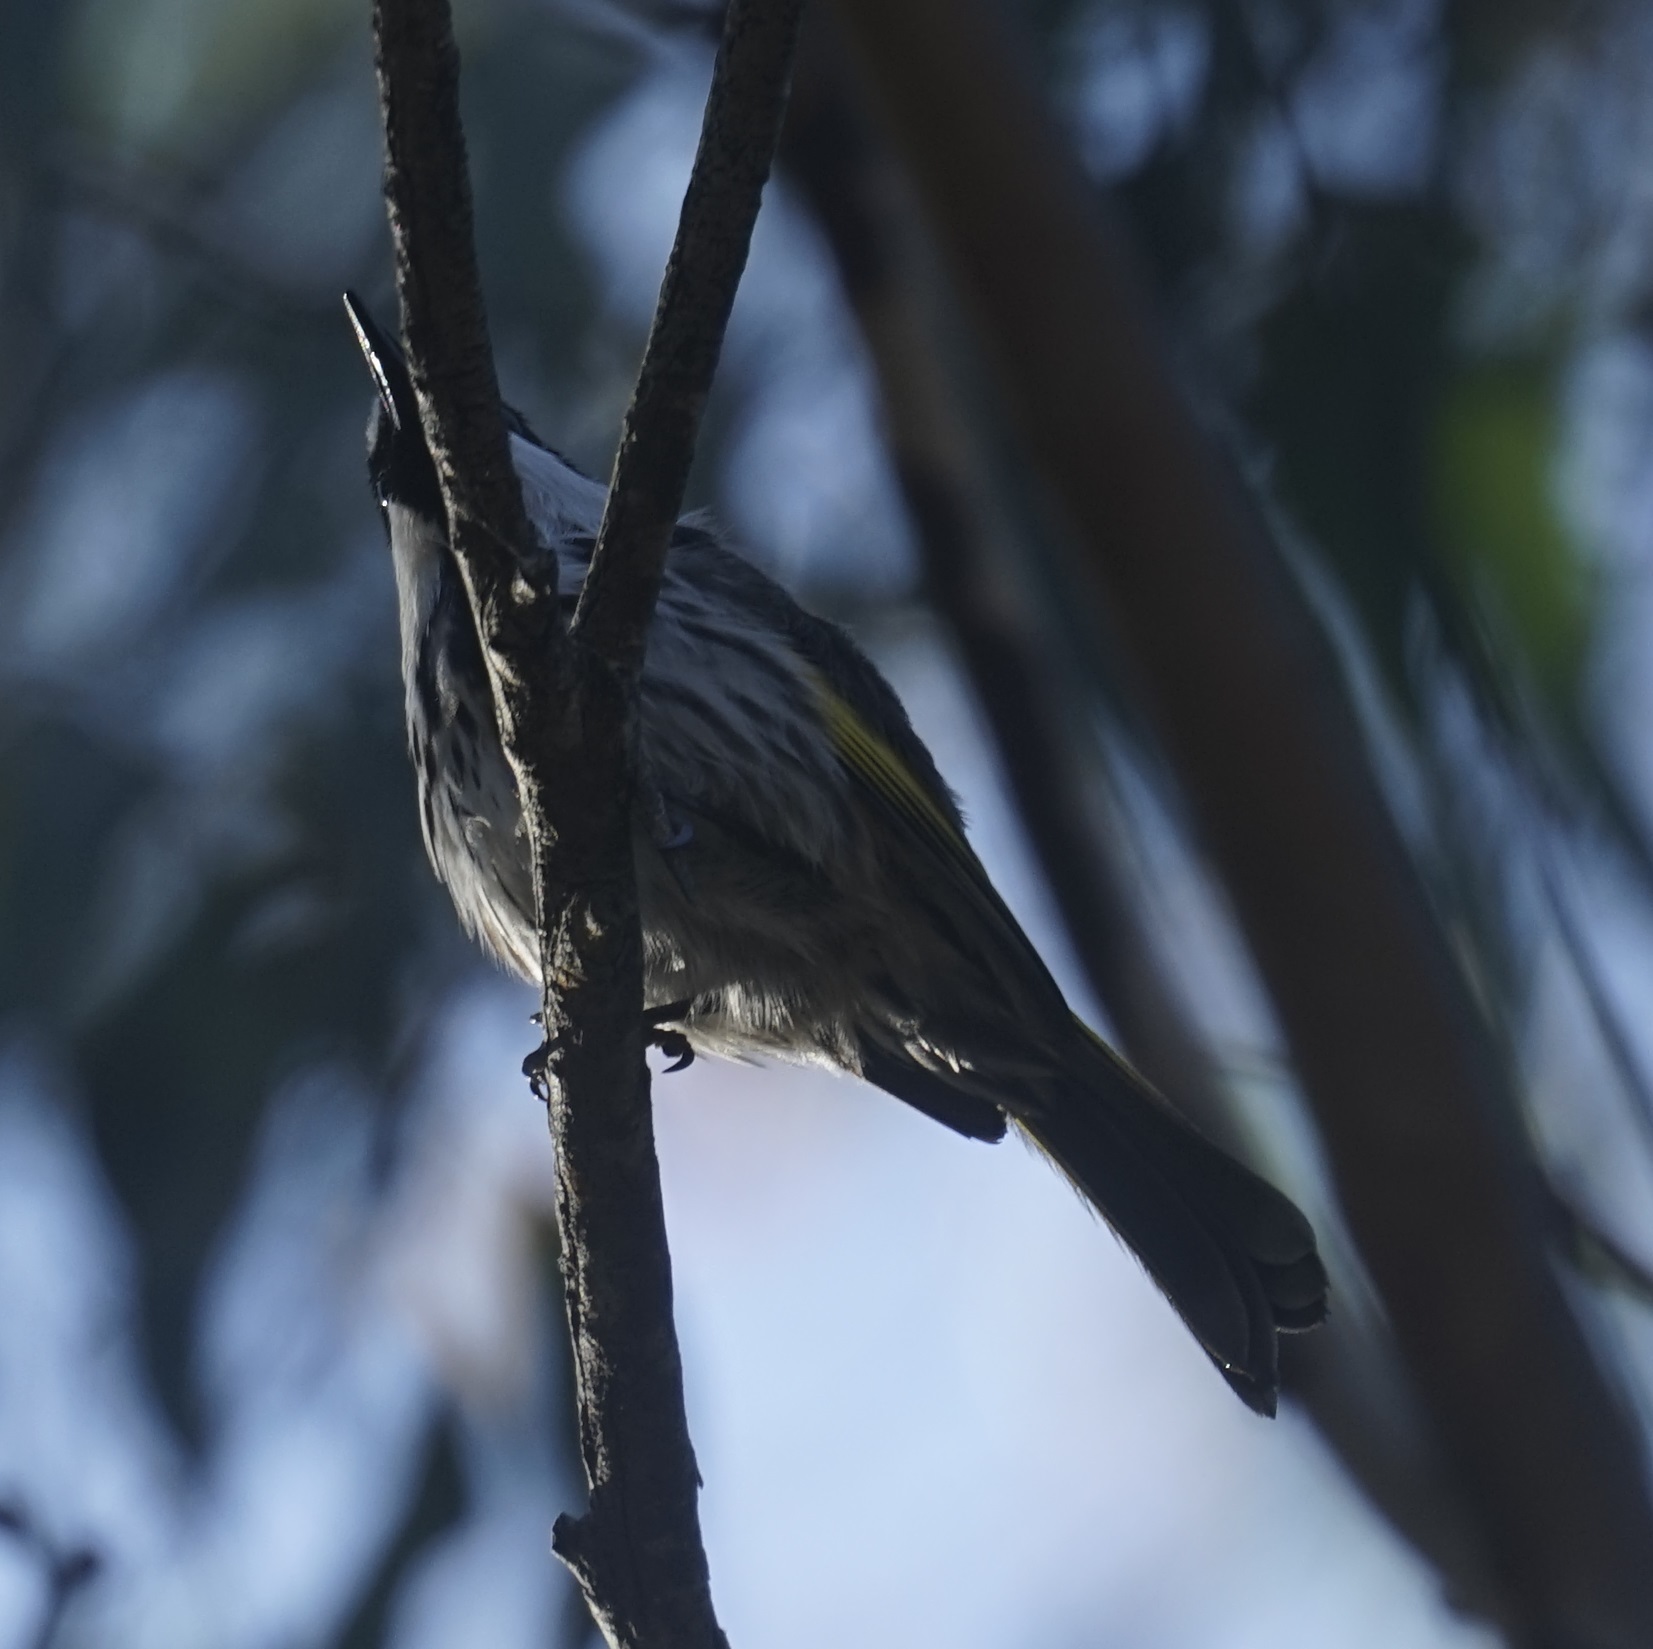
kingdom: Animalia
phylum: Chordata
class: Aves
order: Passeriformes
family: Meliphagidae
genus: Phylidonyris
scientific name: Phylidonyris niger
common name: White-cheeked honeyeater
